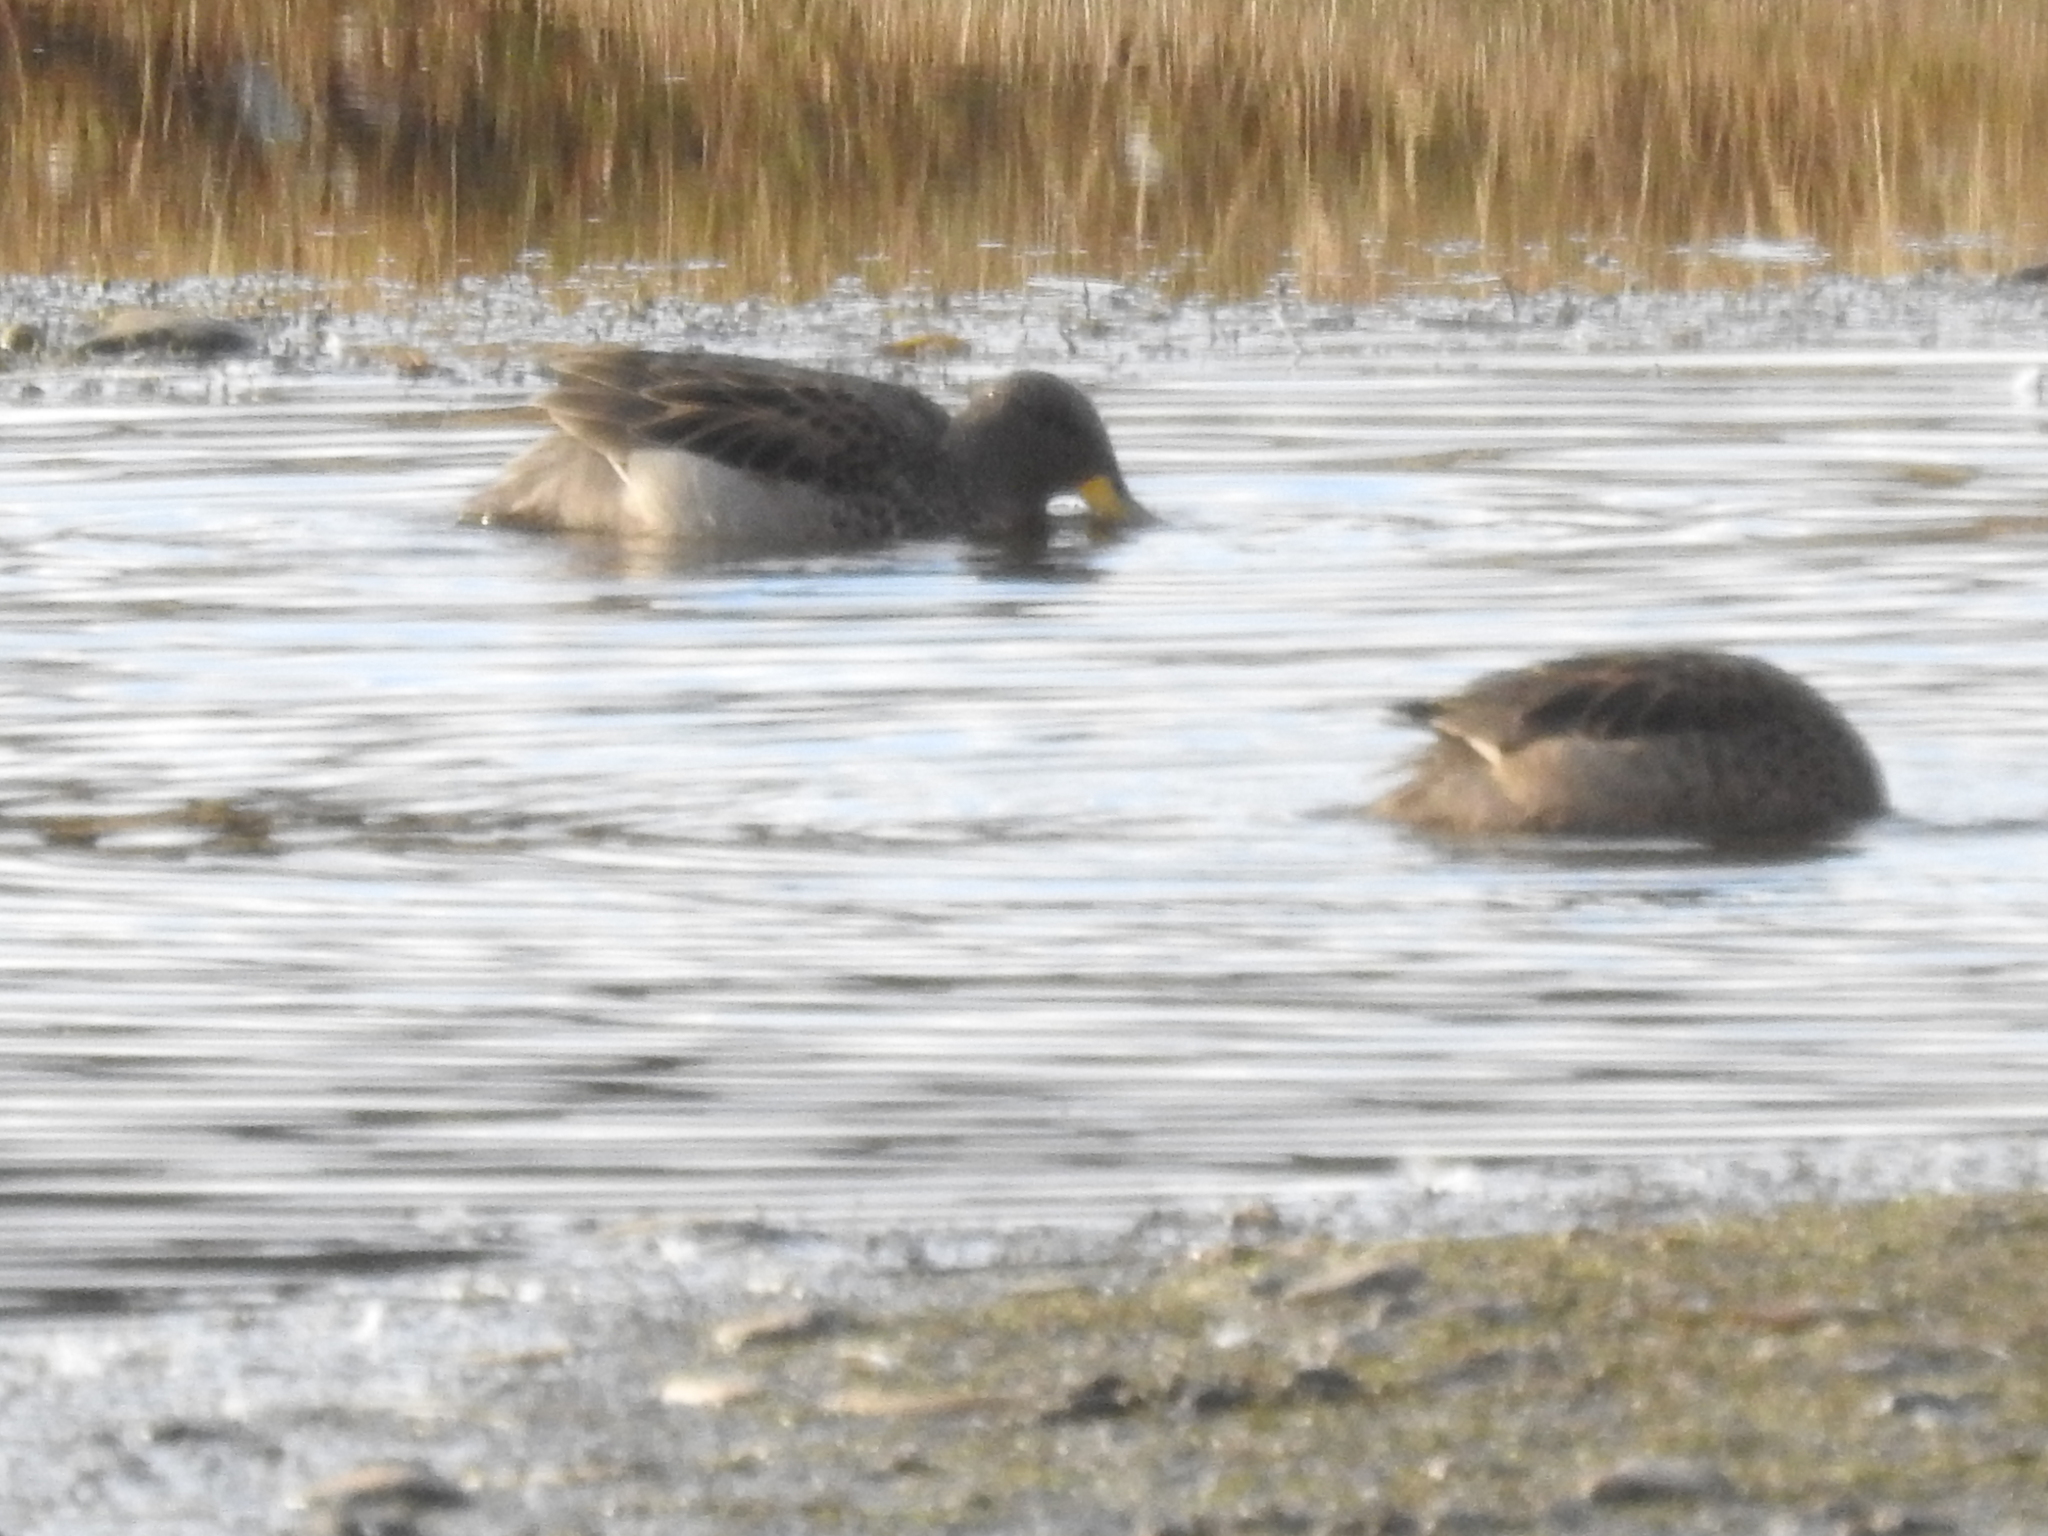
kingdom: Animalia
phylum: Chordata
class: Aves
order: Anseriformes
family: Anatidae
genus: Anas
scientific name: Anas flavirostris
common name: Yellow-billed teal
